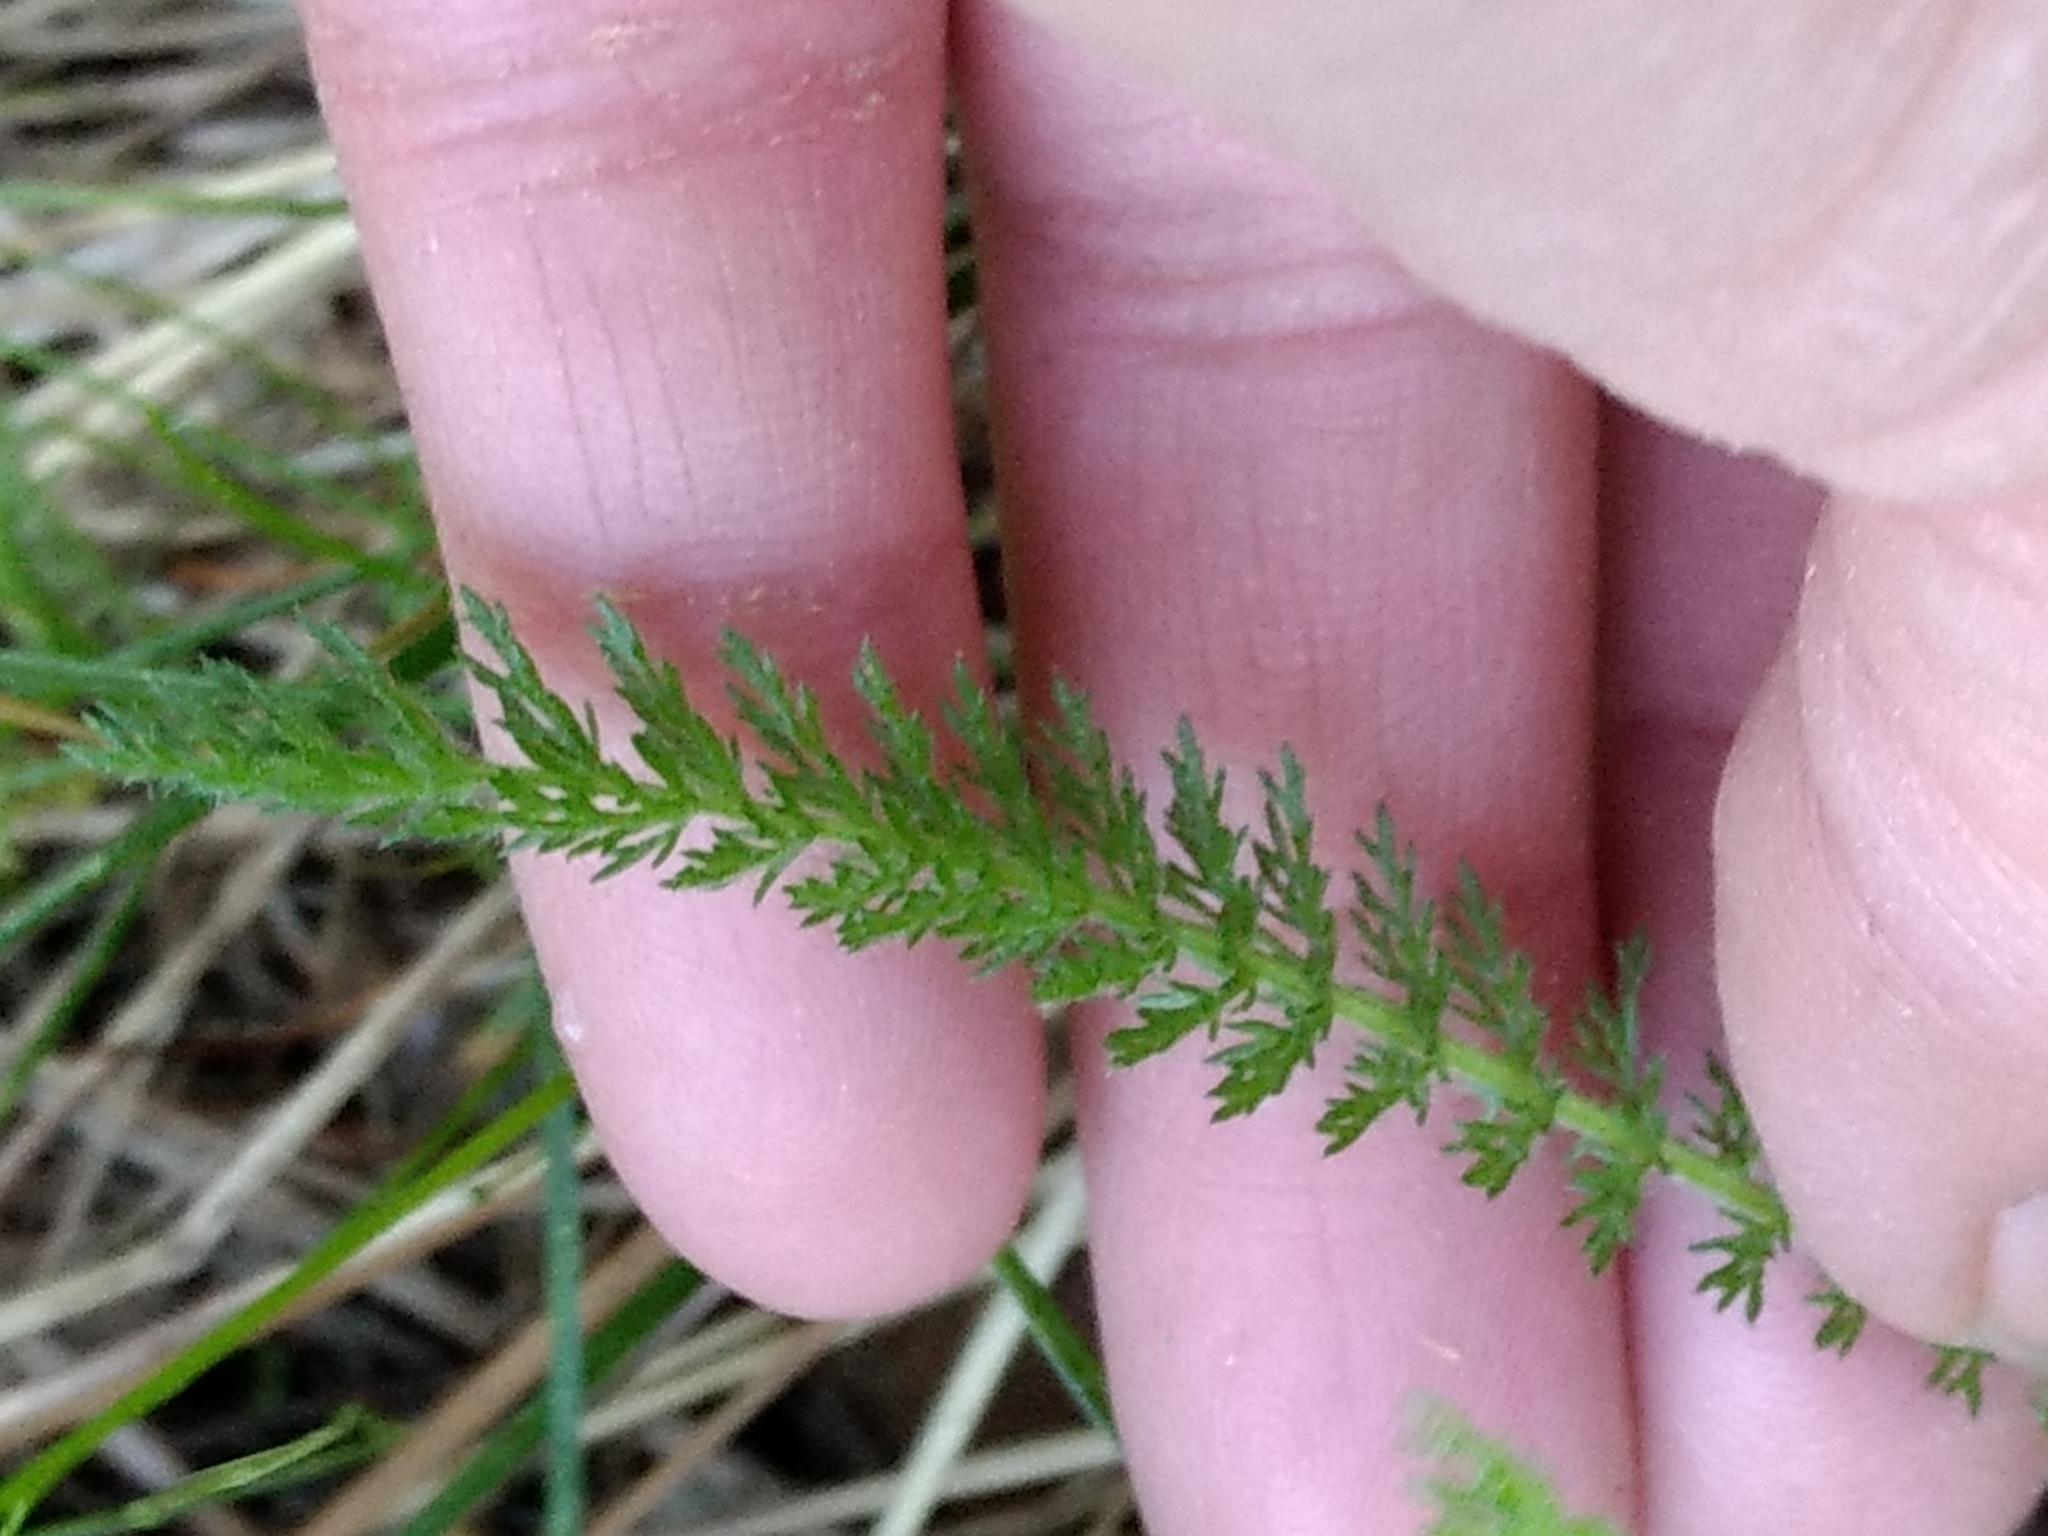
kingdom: Plantae
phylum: Tracheophyta
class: Magnoliopsida
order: Asterales
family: Asteraceae
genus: Achillea
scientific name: Achillea millefolium
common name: Yarrow
